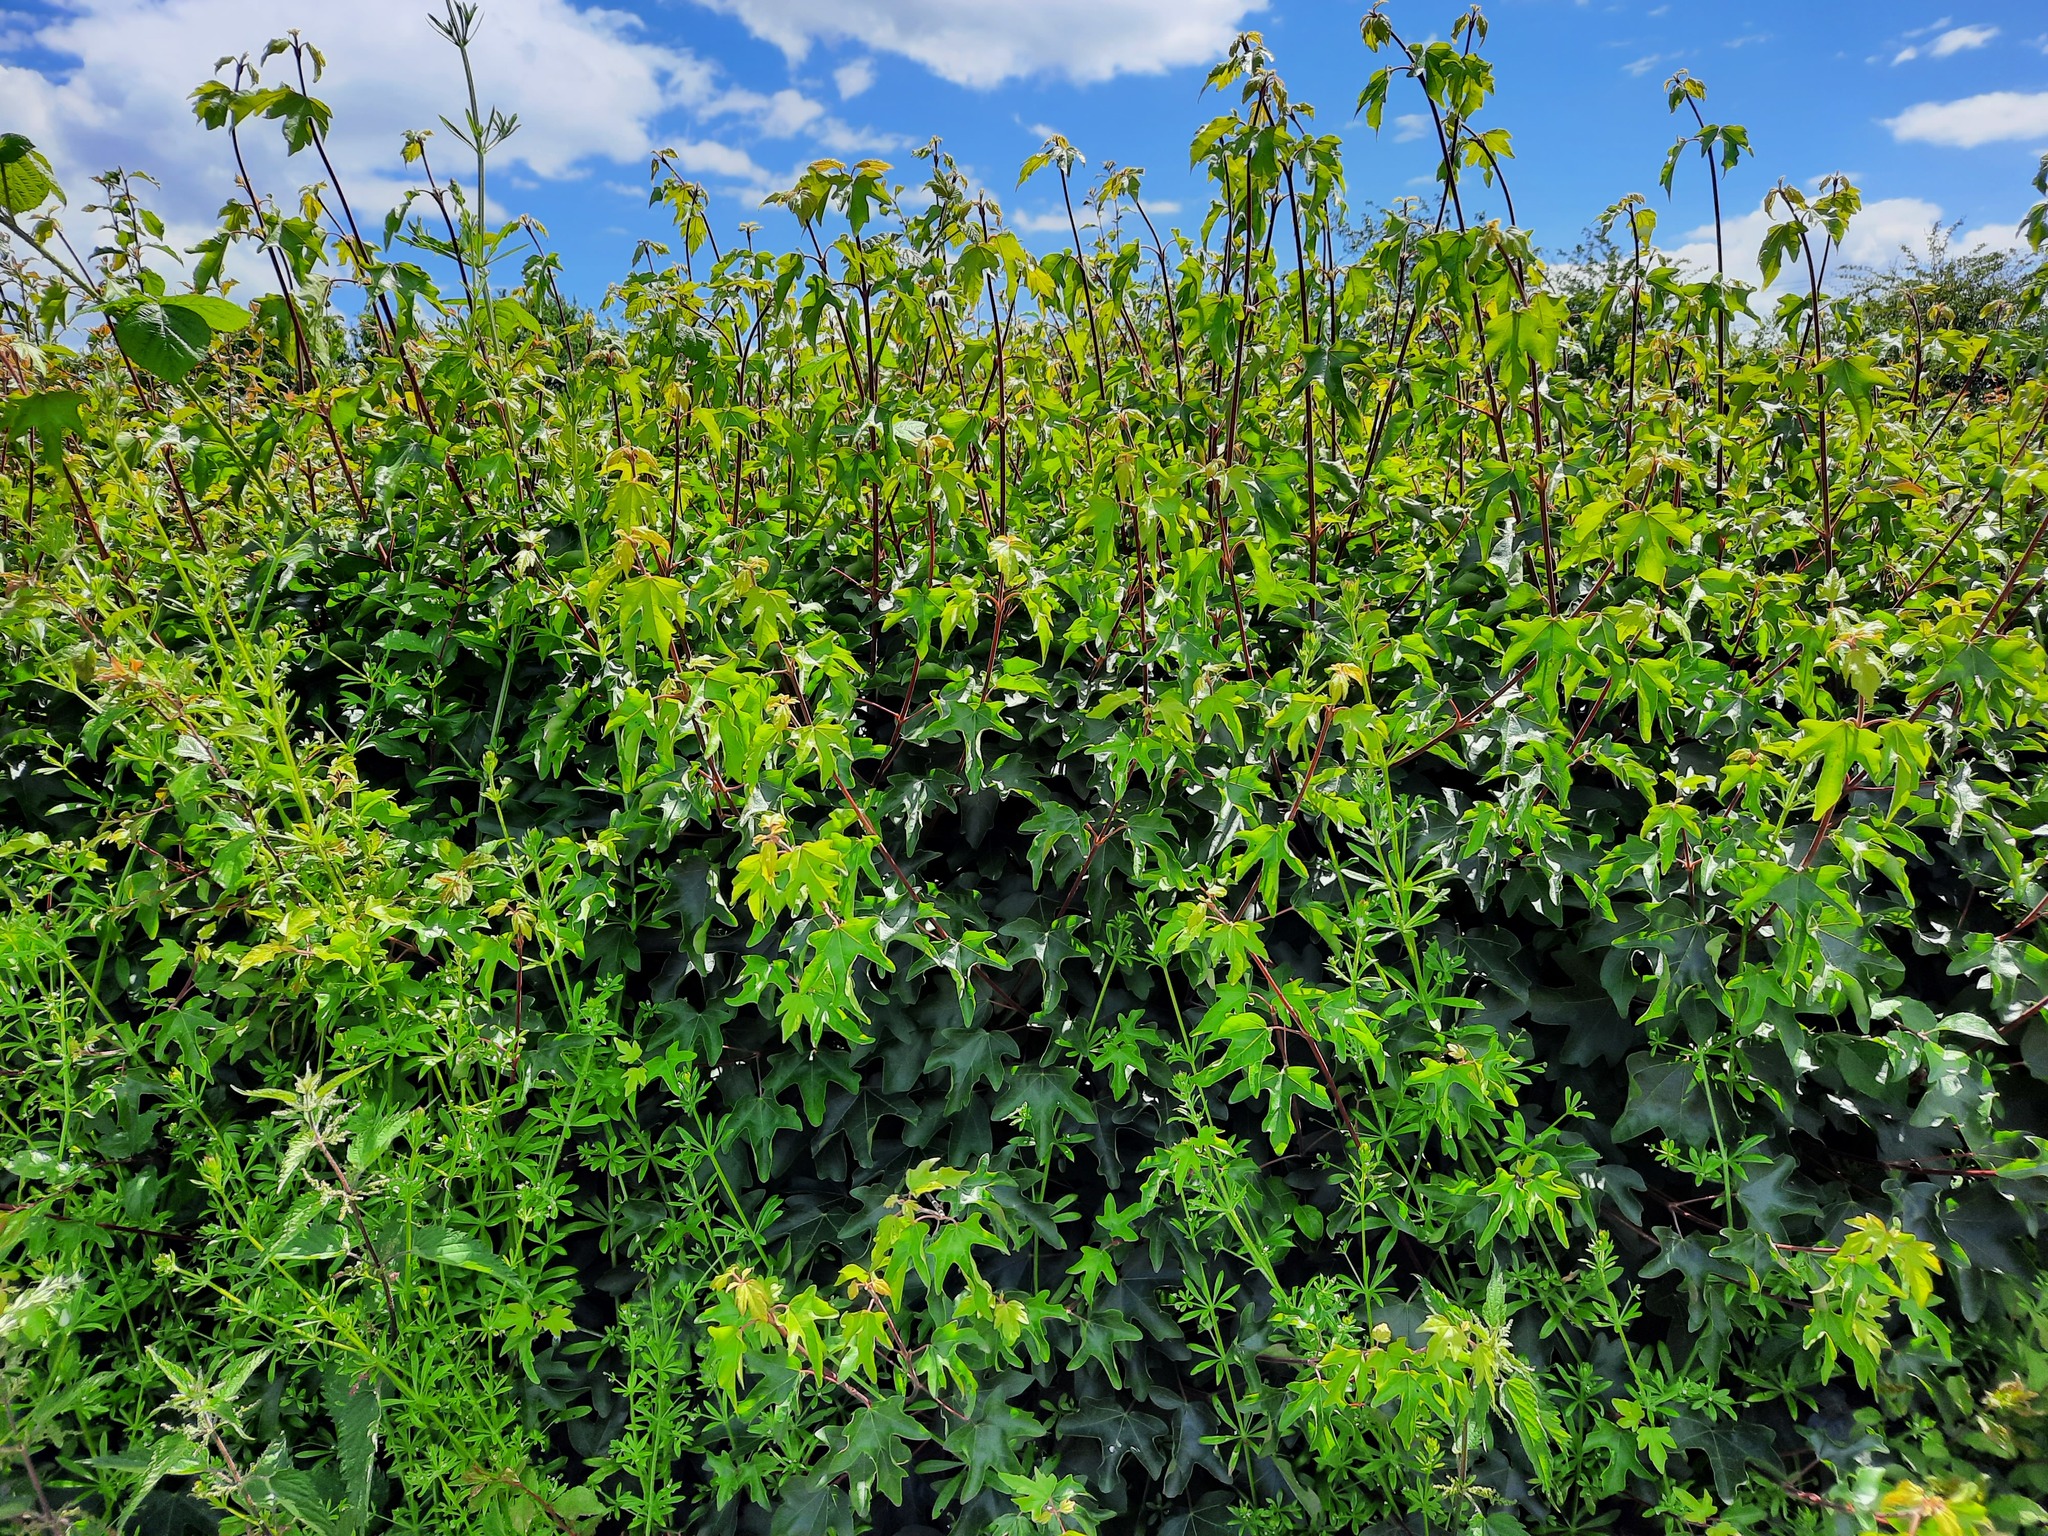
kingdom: Plantae
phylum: Tracheophyta
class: Magnoliopsida
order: Sapindales
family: Sapindaceae
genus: Acer
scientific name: Acer campestre
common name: Field maple
